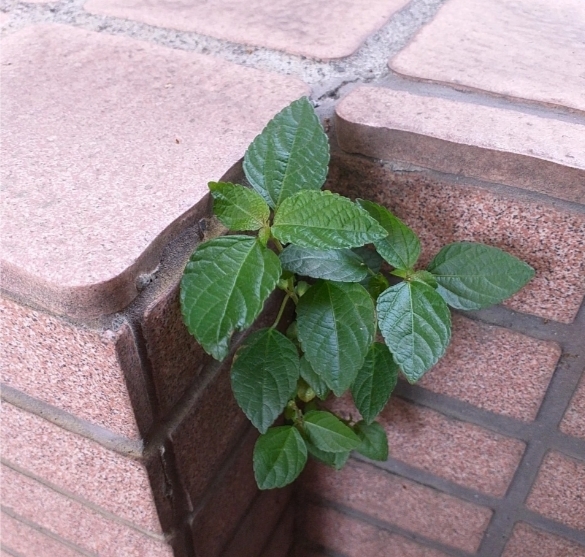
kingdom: Plantae
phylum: Tracheophyta
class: Magnoliopsida
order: Malpighiales
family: Euphorbiaceae
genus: Acalypha
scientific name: Acalypha australis
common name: Asian copperleaf
